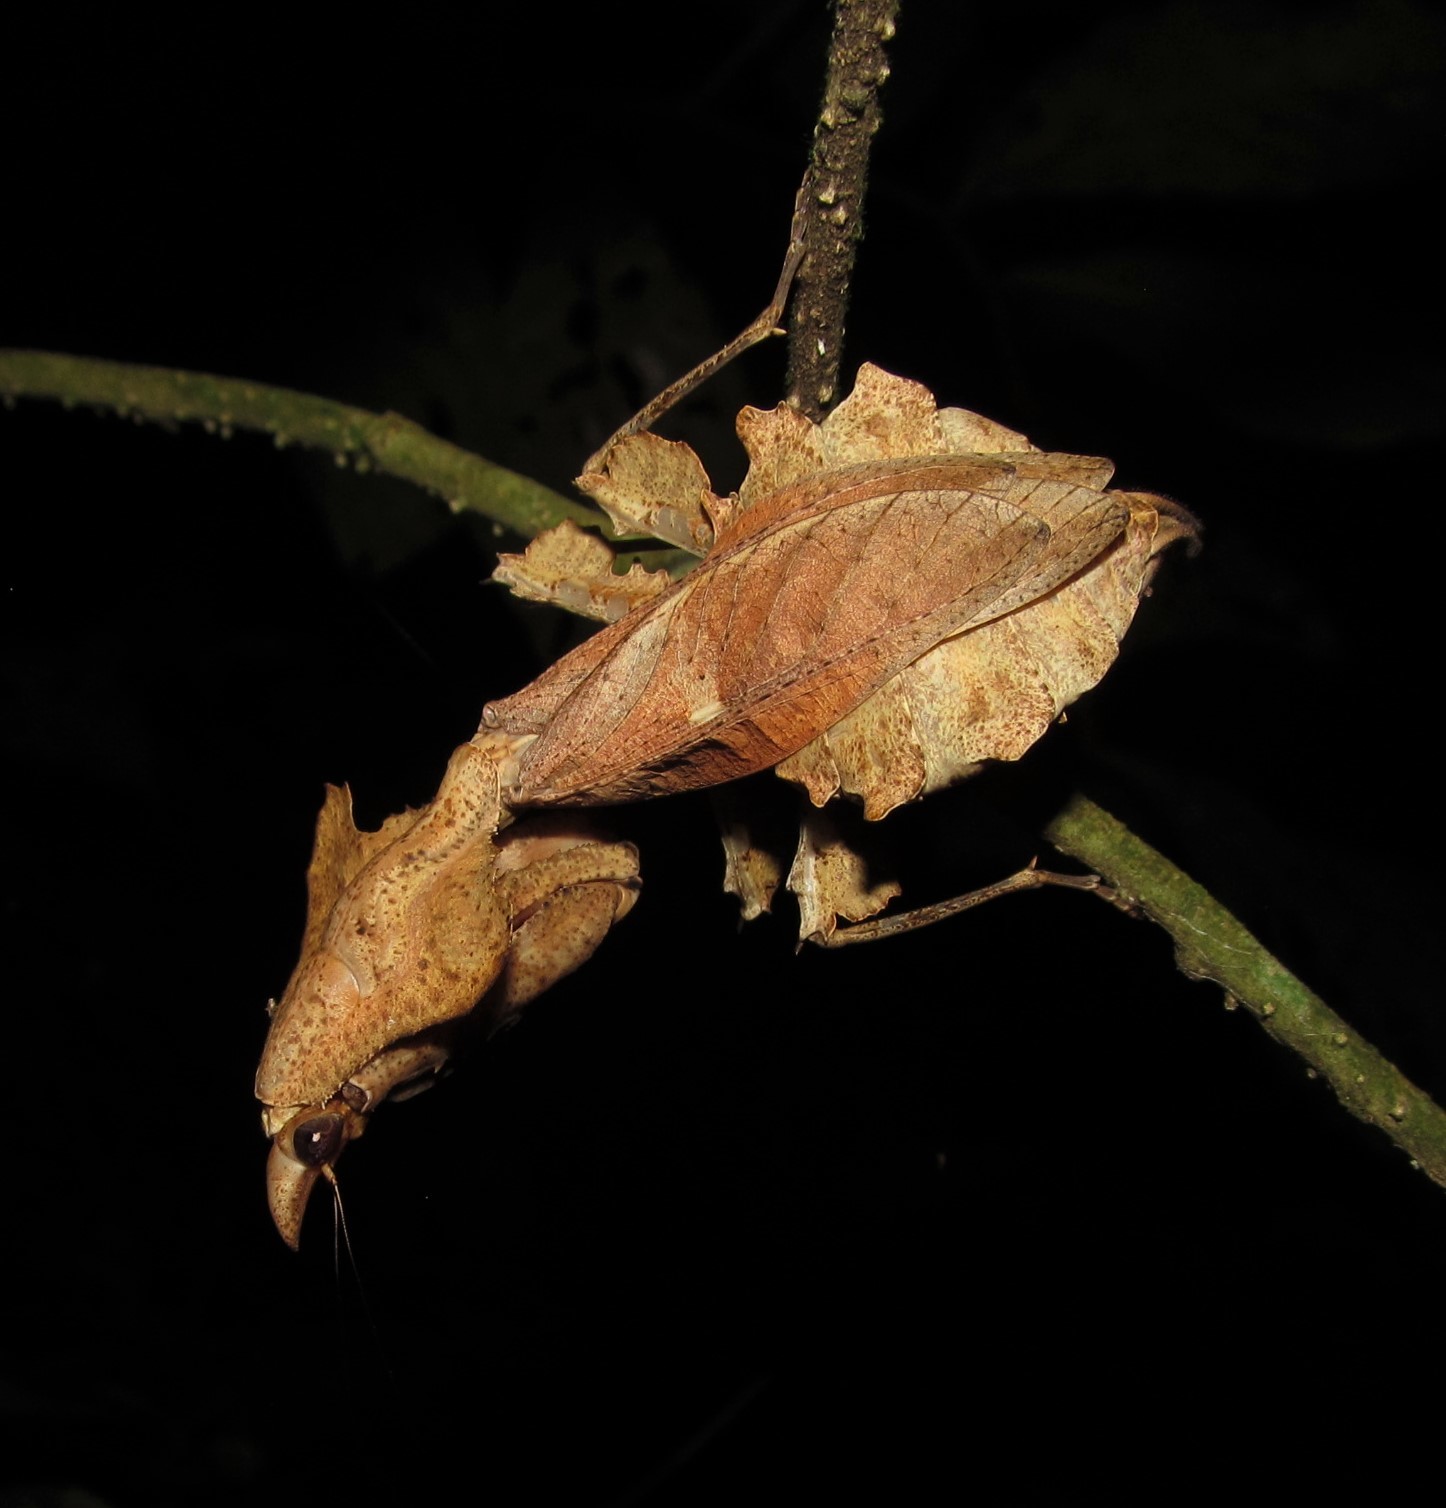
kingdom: Animalia
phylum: Arthropoda
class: Insecta
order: Mantodea
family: Hymenopodidae
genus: Parablepharis
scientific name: Parablepharis kuhlii
